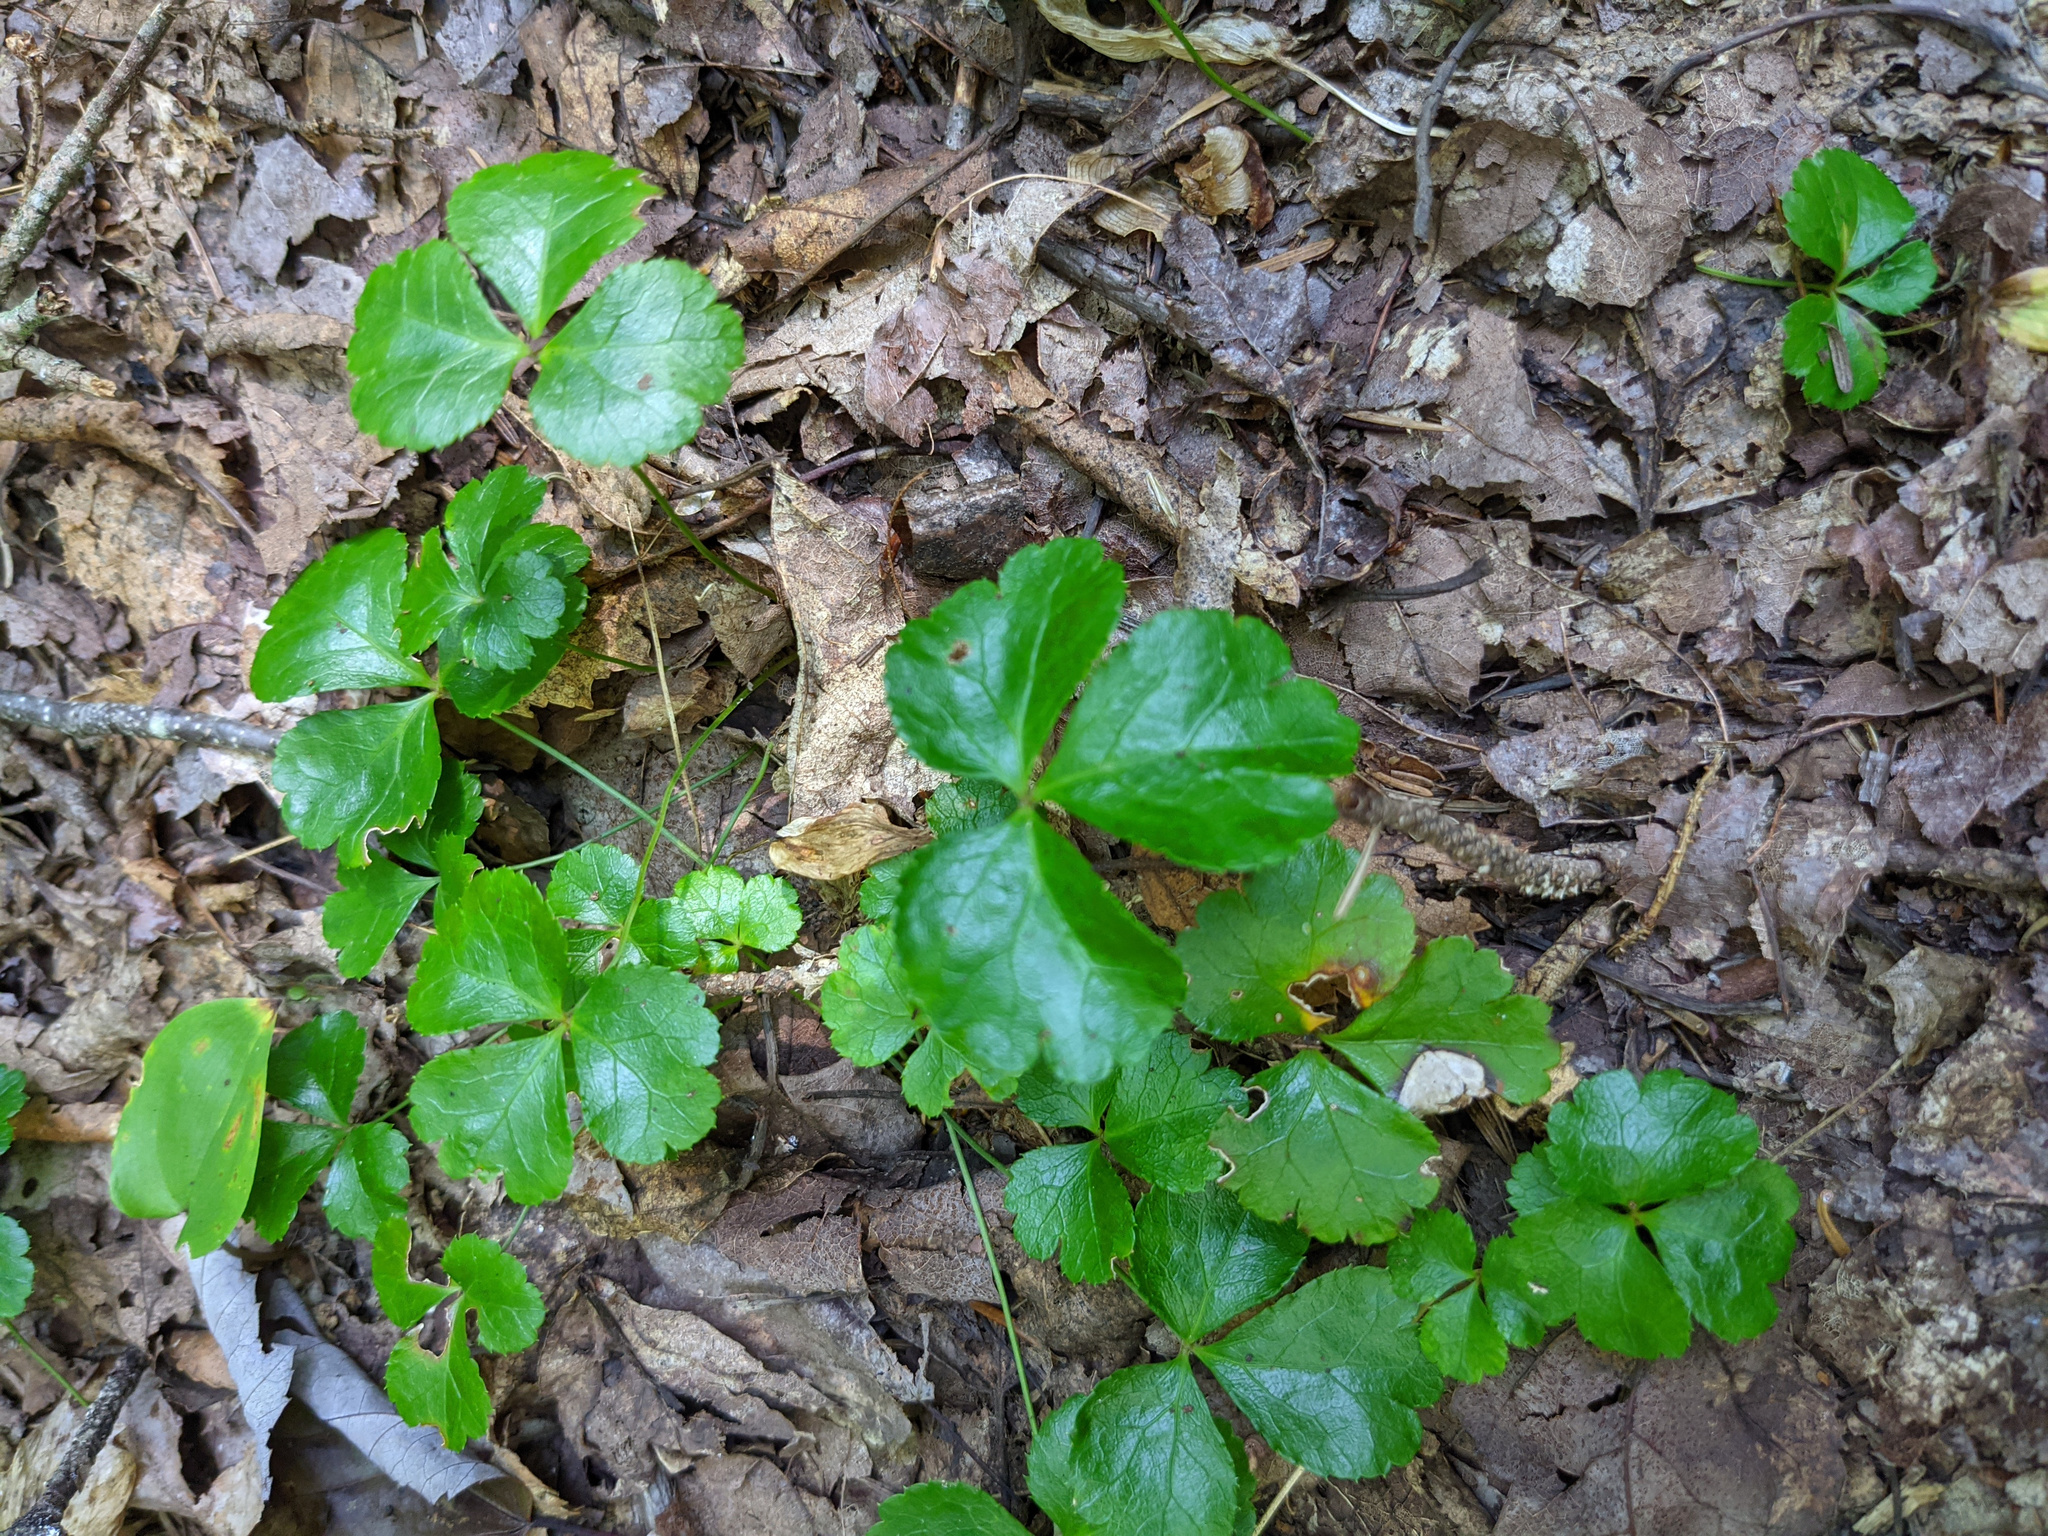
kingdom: Plantae
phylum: Tracheophyta
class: Magnoliopsida
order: Ranunculales
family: Ranunculaceae
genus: Coptis
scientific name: Coptis trifolia
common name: Canker-root
